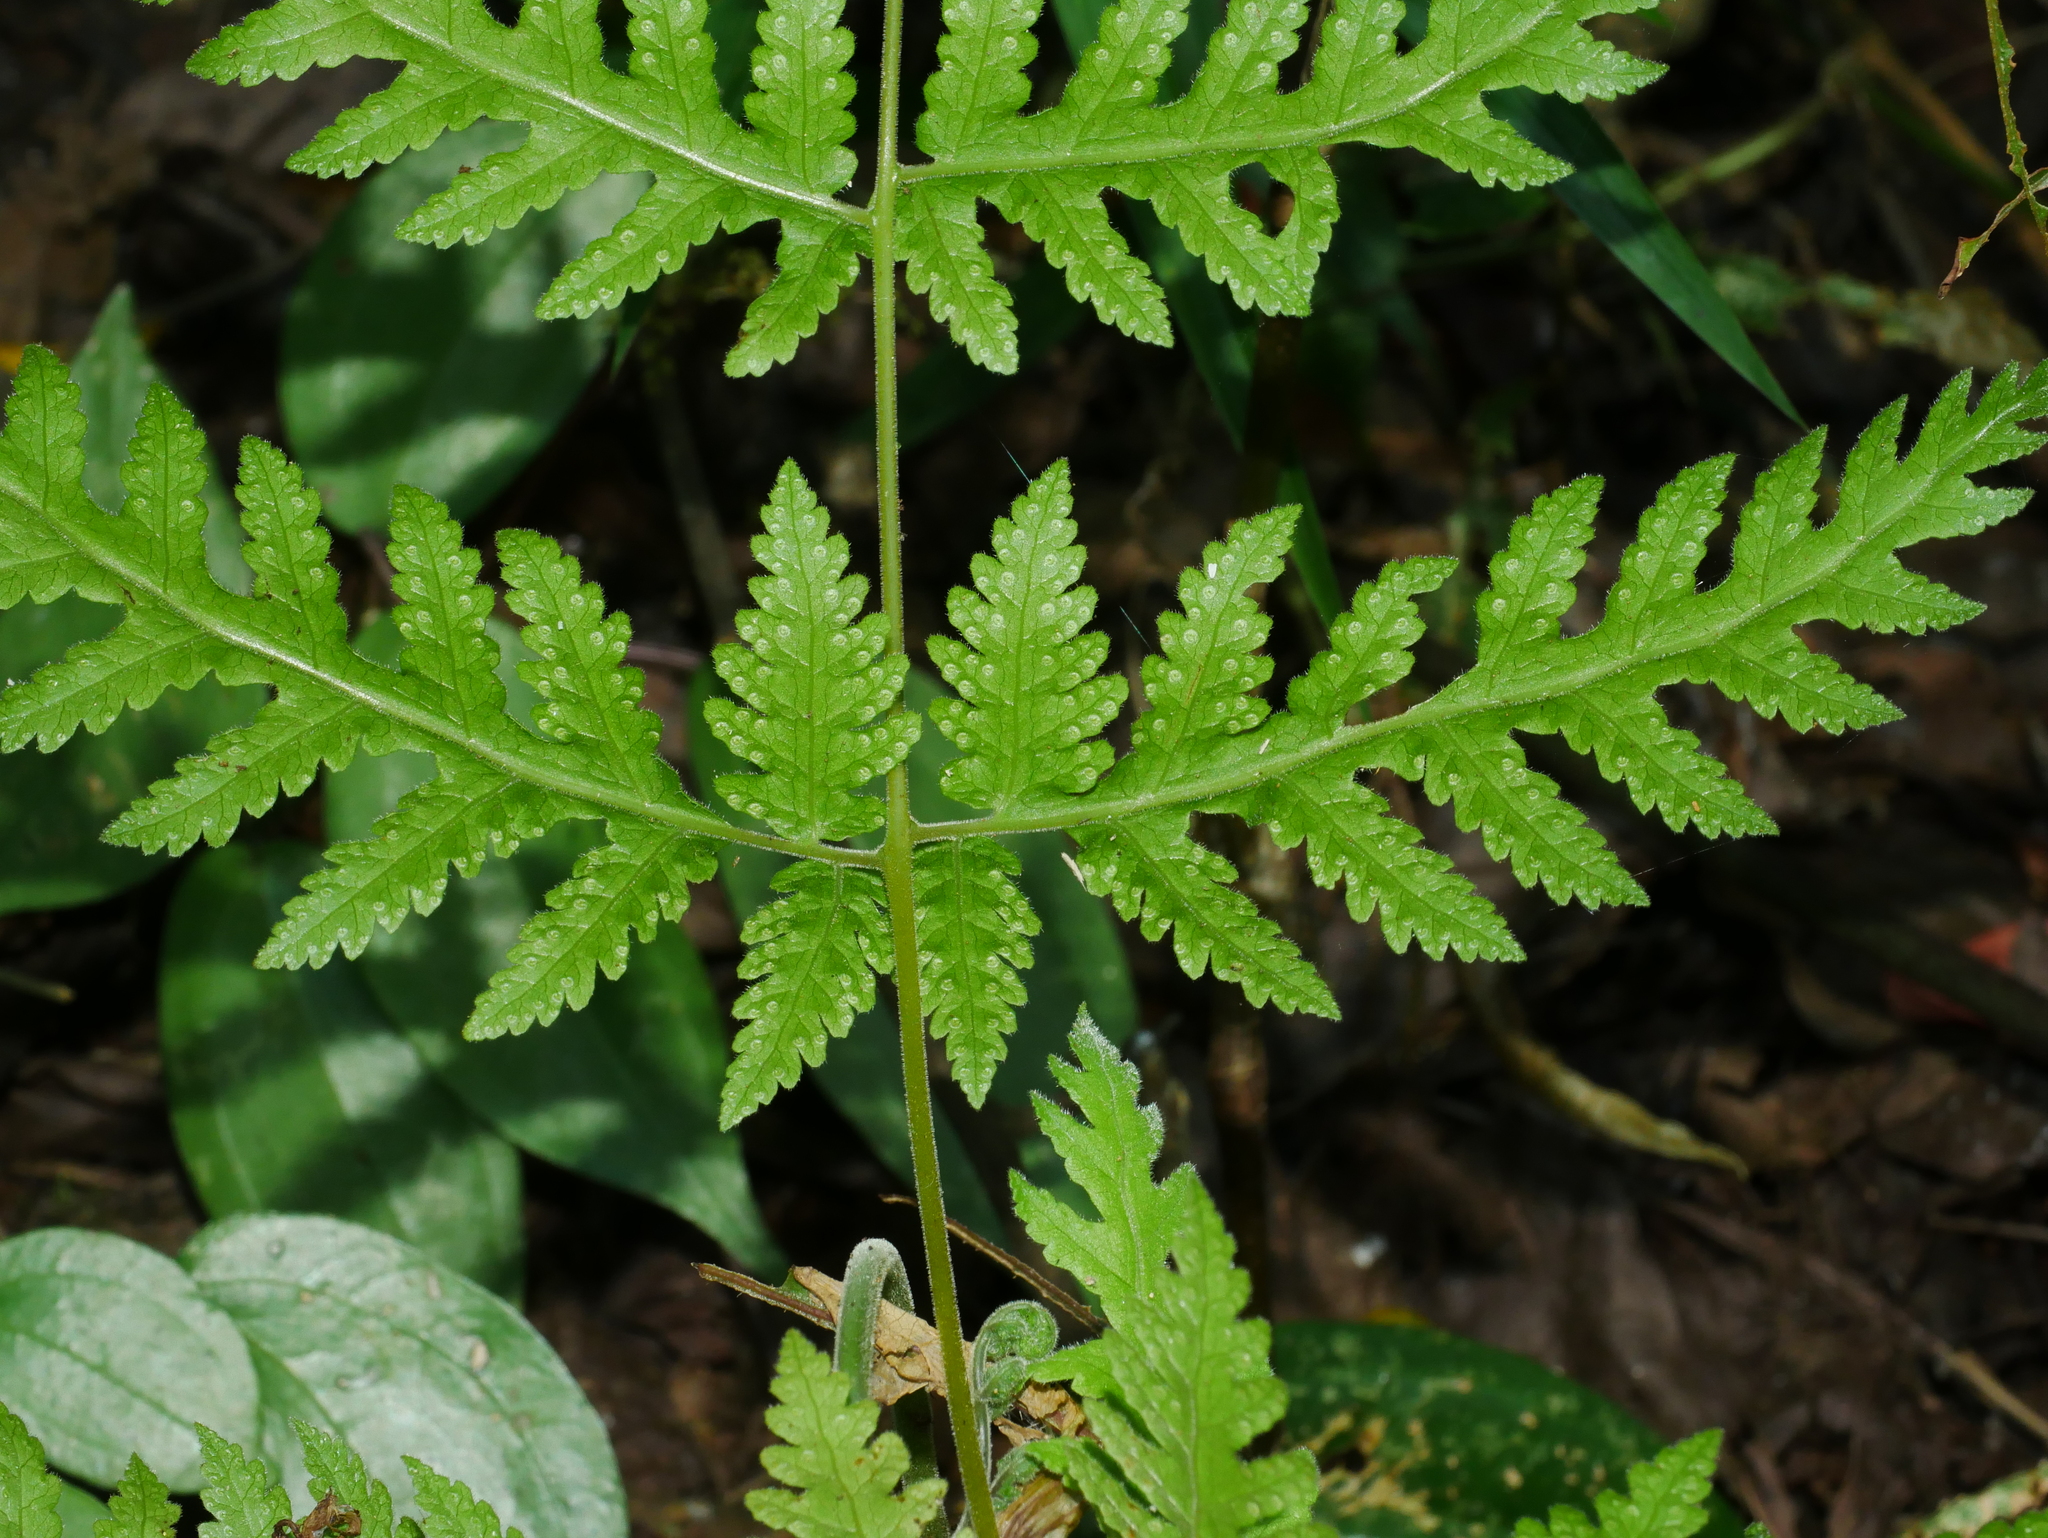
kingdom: Plantae
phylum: Tracheophyta
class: Polypodiopsida
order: Polypodiales
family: Tectariaceae
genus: Tectaria
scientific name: Tectaria membranacea
